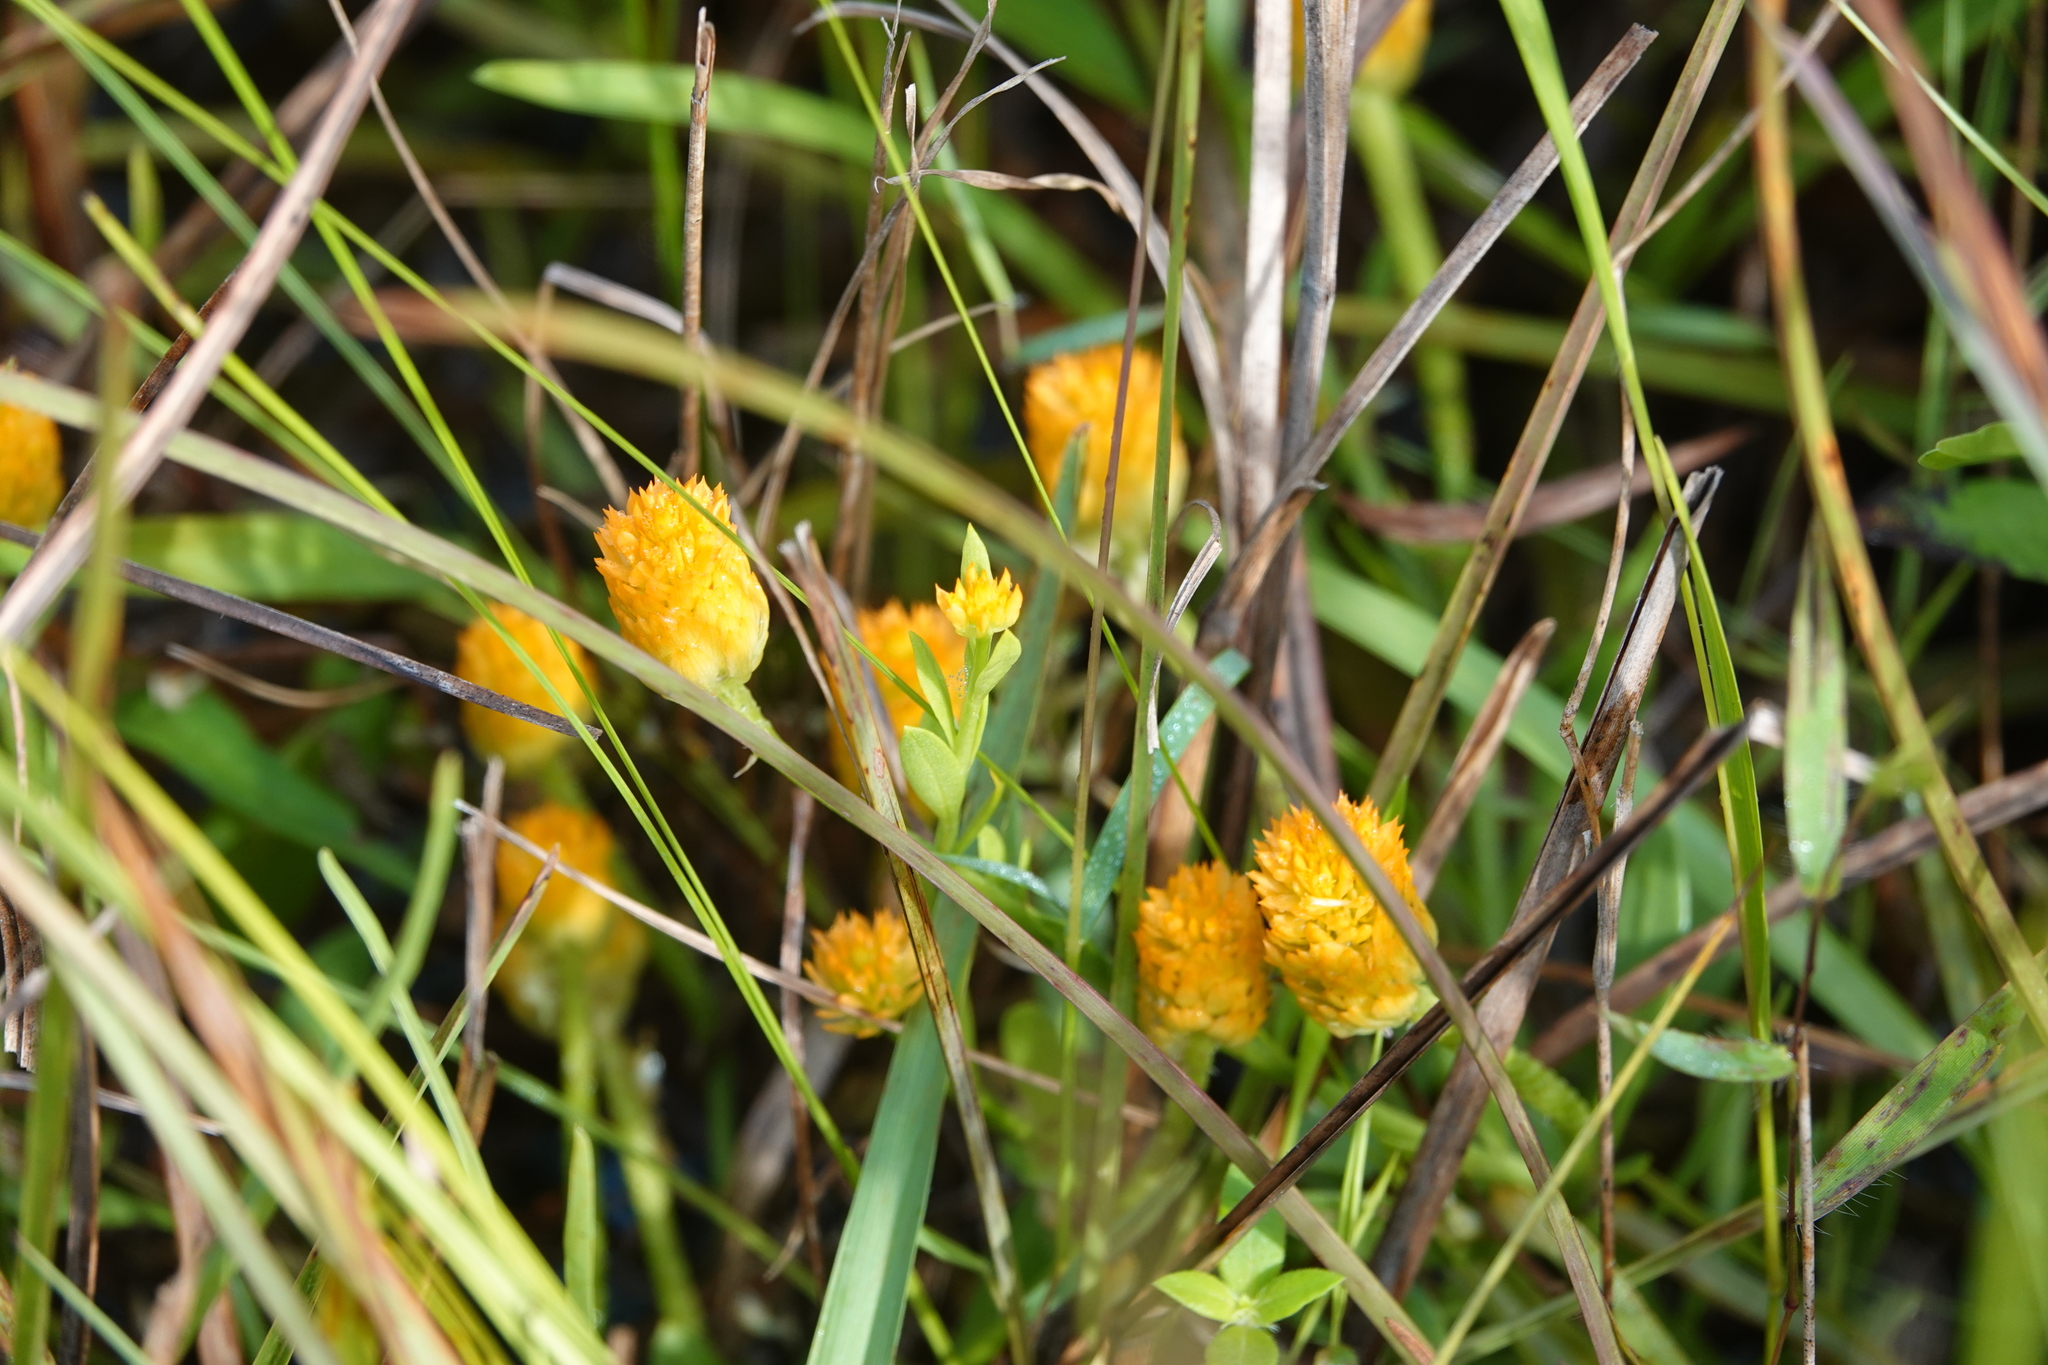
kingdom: Plantae
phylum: Tracheophyta
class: Magnoliopsida
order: Fabales
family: Polygalaceae
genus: Polygala
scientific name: Polygala lutea
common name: Orange milkwort
